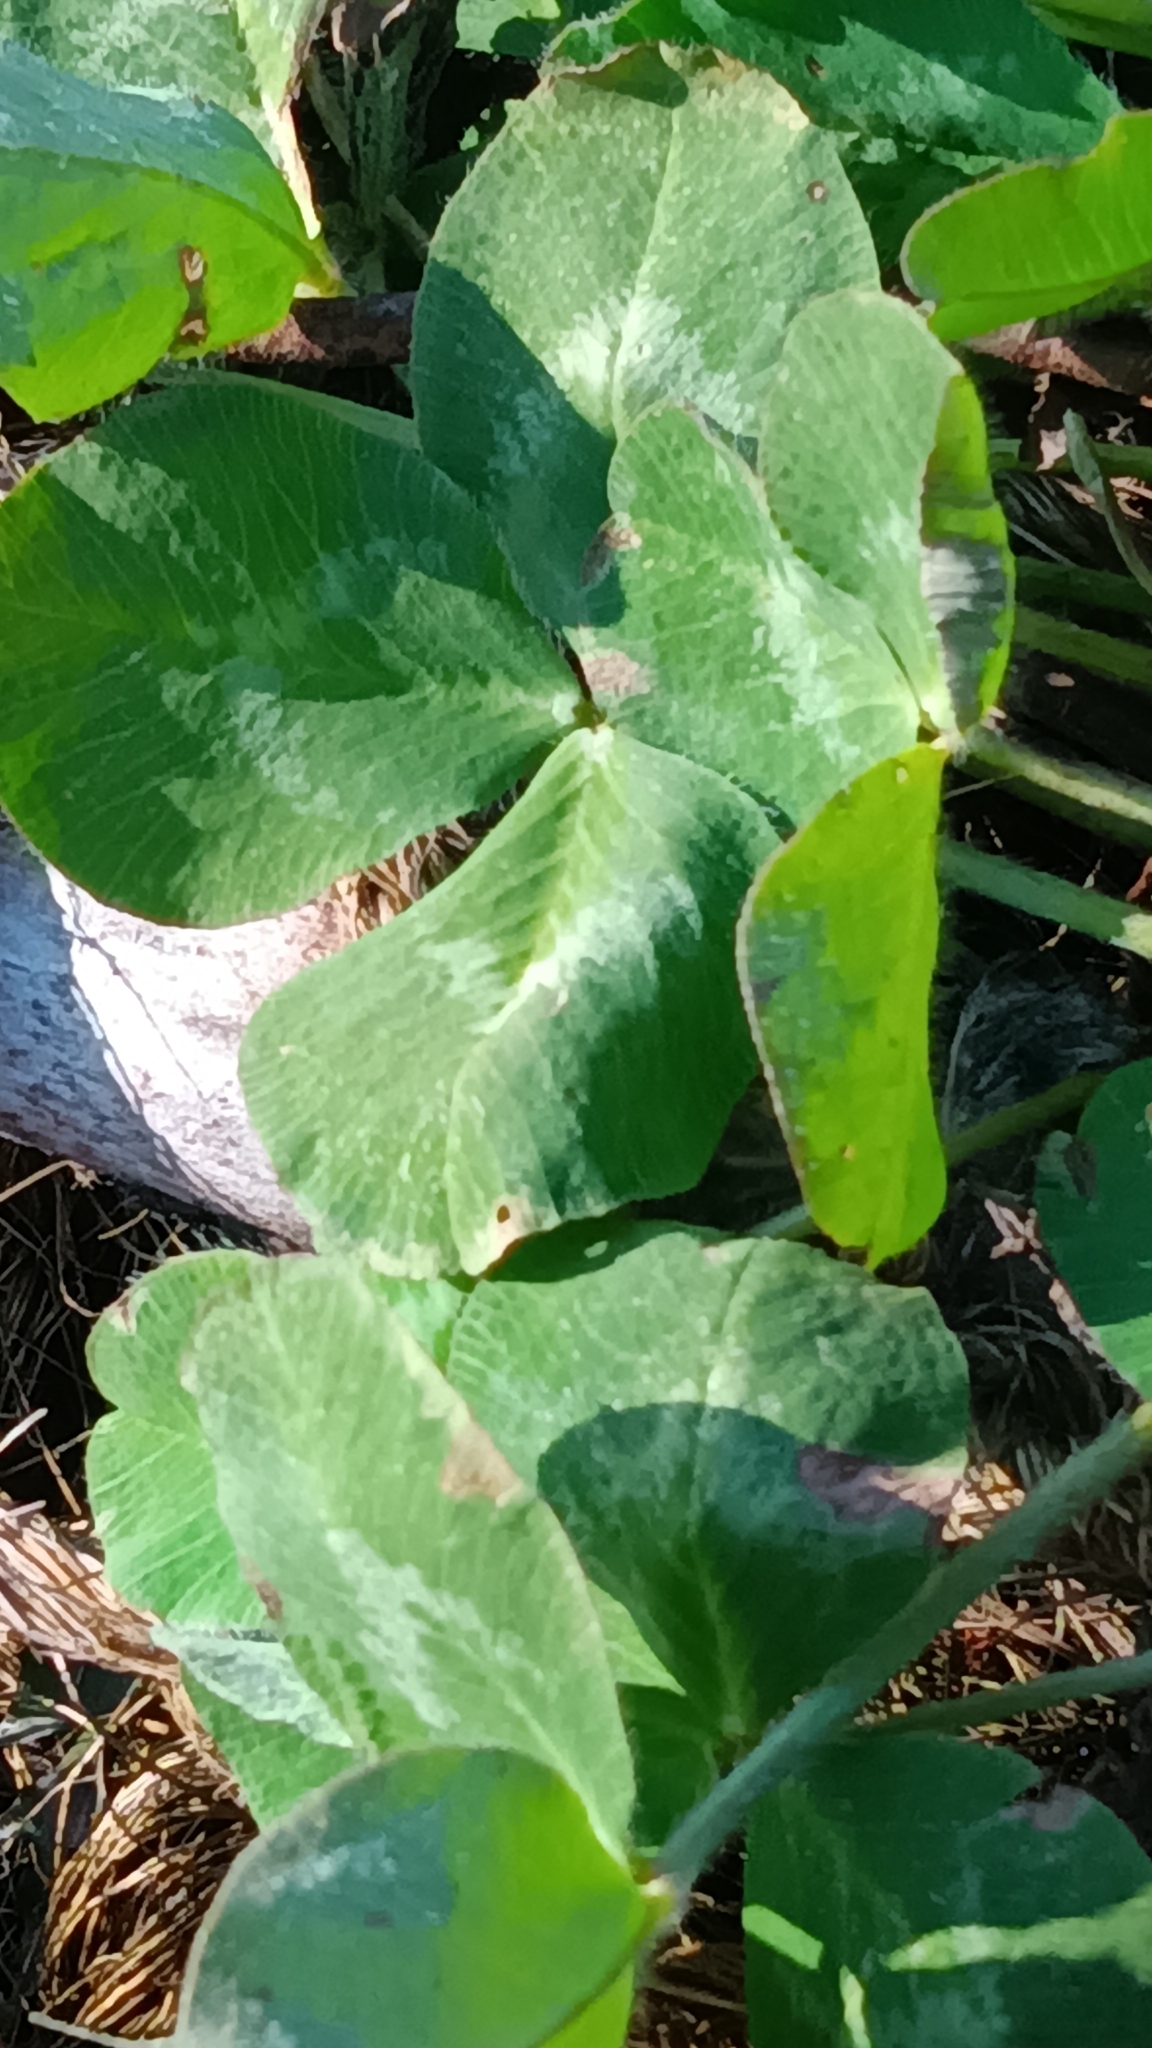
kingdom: Plantae
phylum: Tracheophyta
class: Magnoliopsida
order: Fabales
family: Fabaceae
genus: Trifolium
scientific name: Trifolium pratense
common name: Red clover
